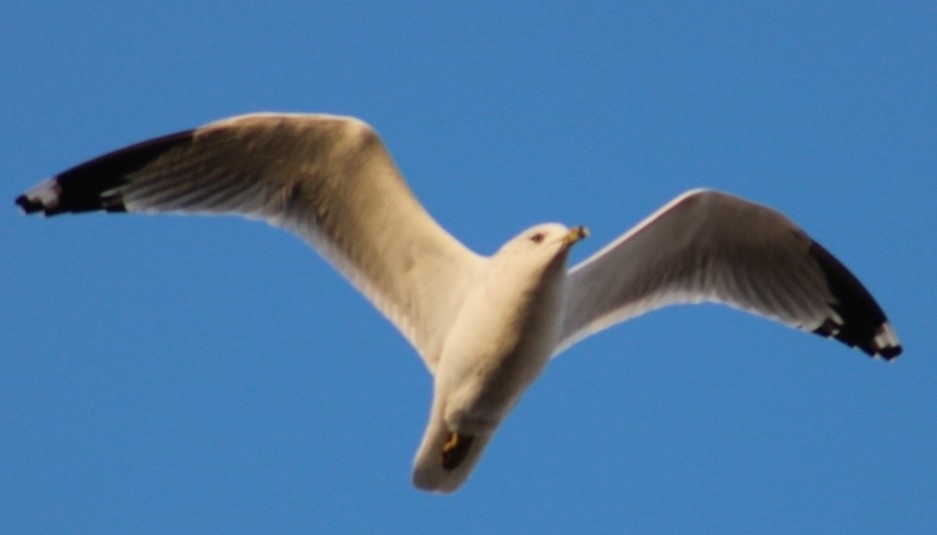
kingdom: Animalia
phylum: Chordata
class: Aves
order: Charadriiformes
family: Laridae
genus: Larus
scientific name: Larus delawarensis
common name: Ring-billed gull
